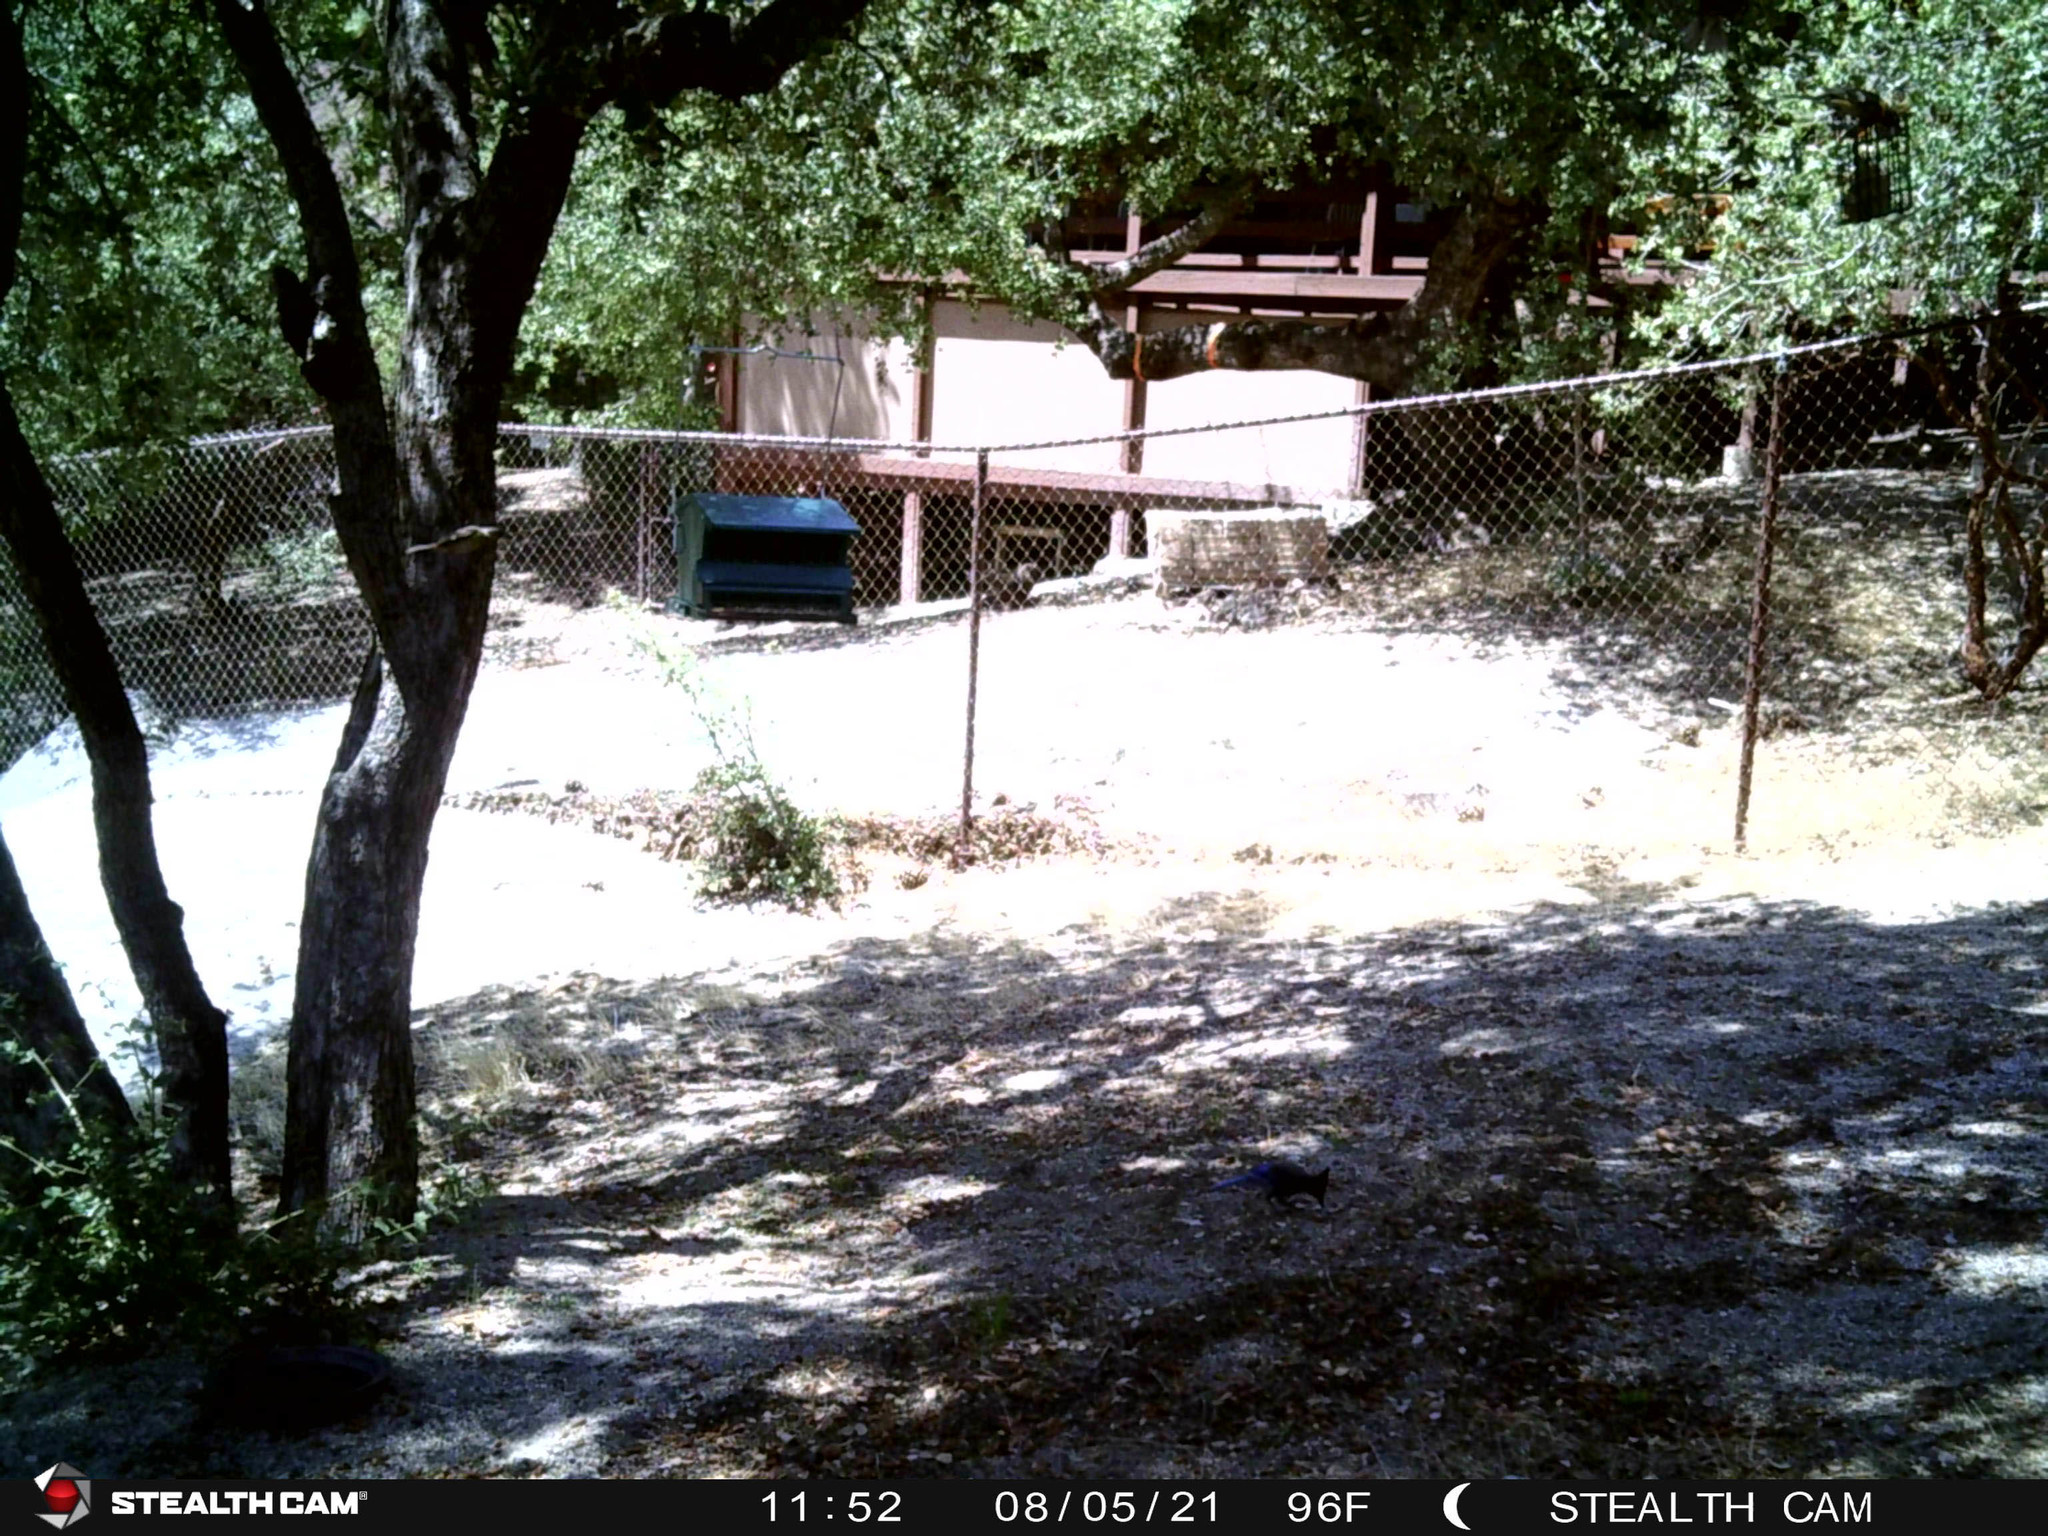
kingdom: Animalia
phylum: Chordata
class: Aves
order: Passeriformes
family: Cardinalidae
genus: Pheucticus
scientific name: Pheucticus melanocephalus
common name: Black-headed grosbeak
